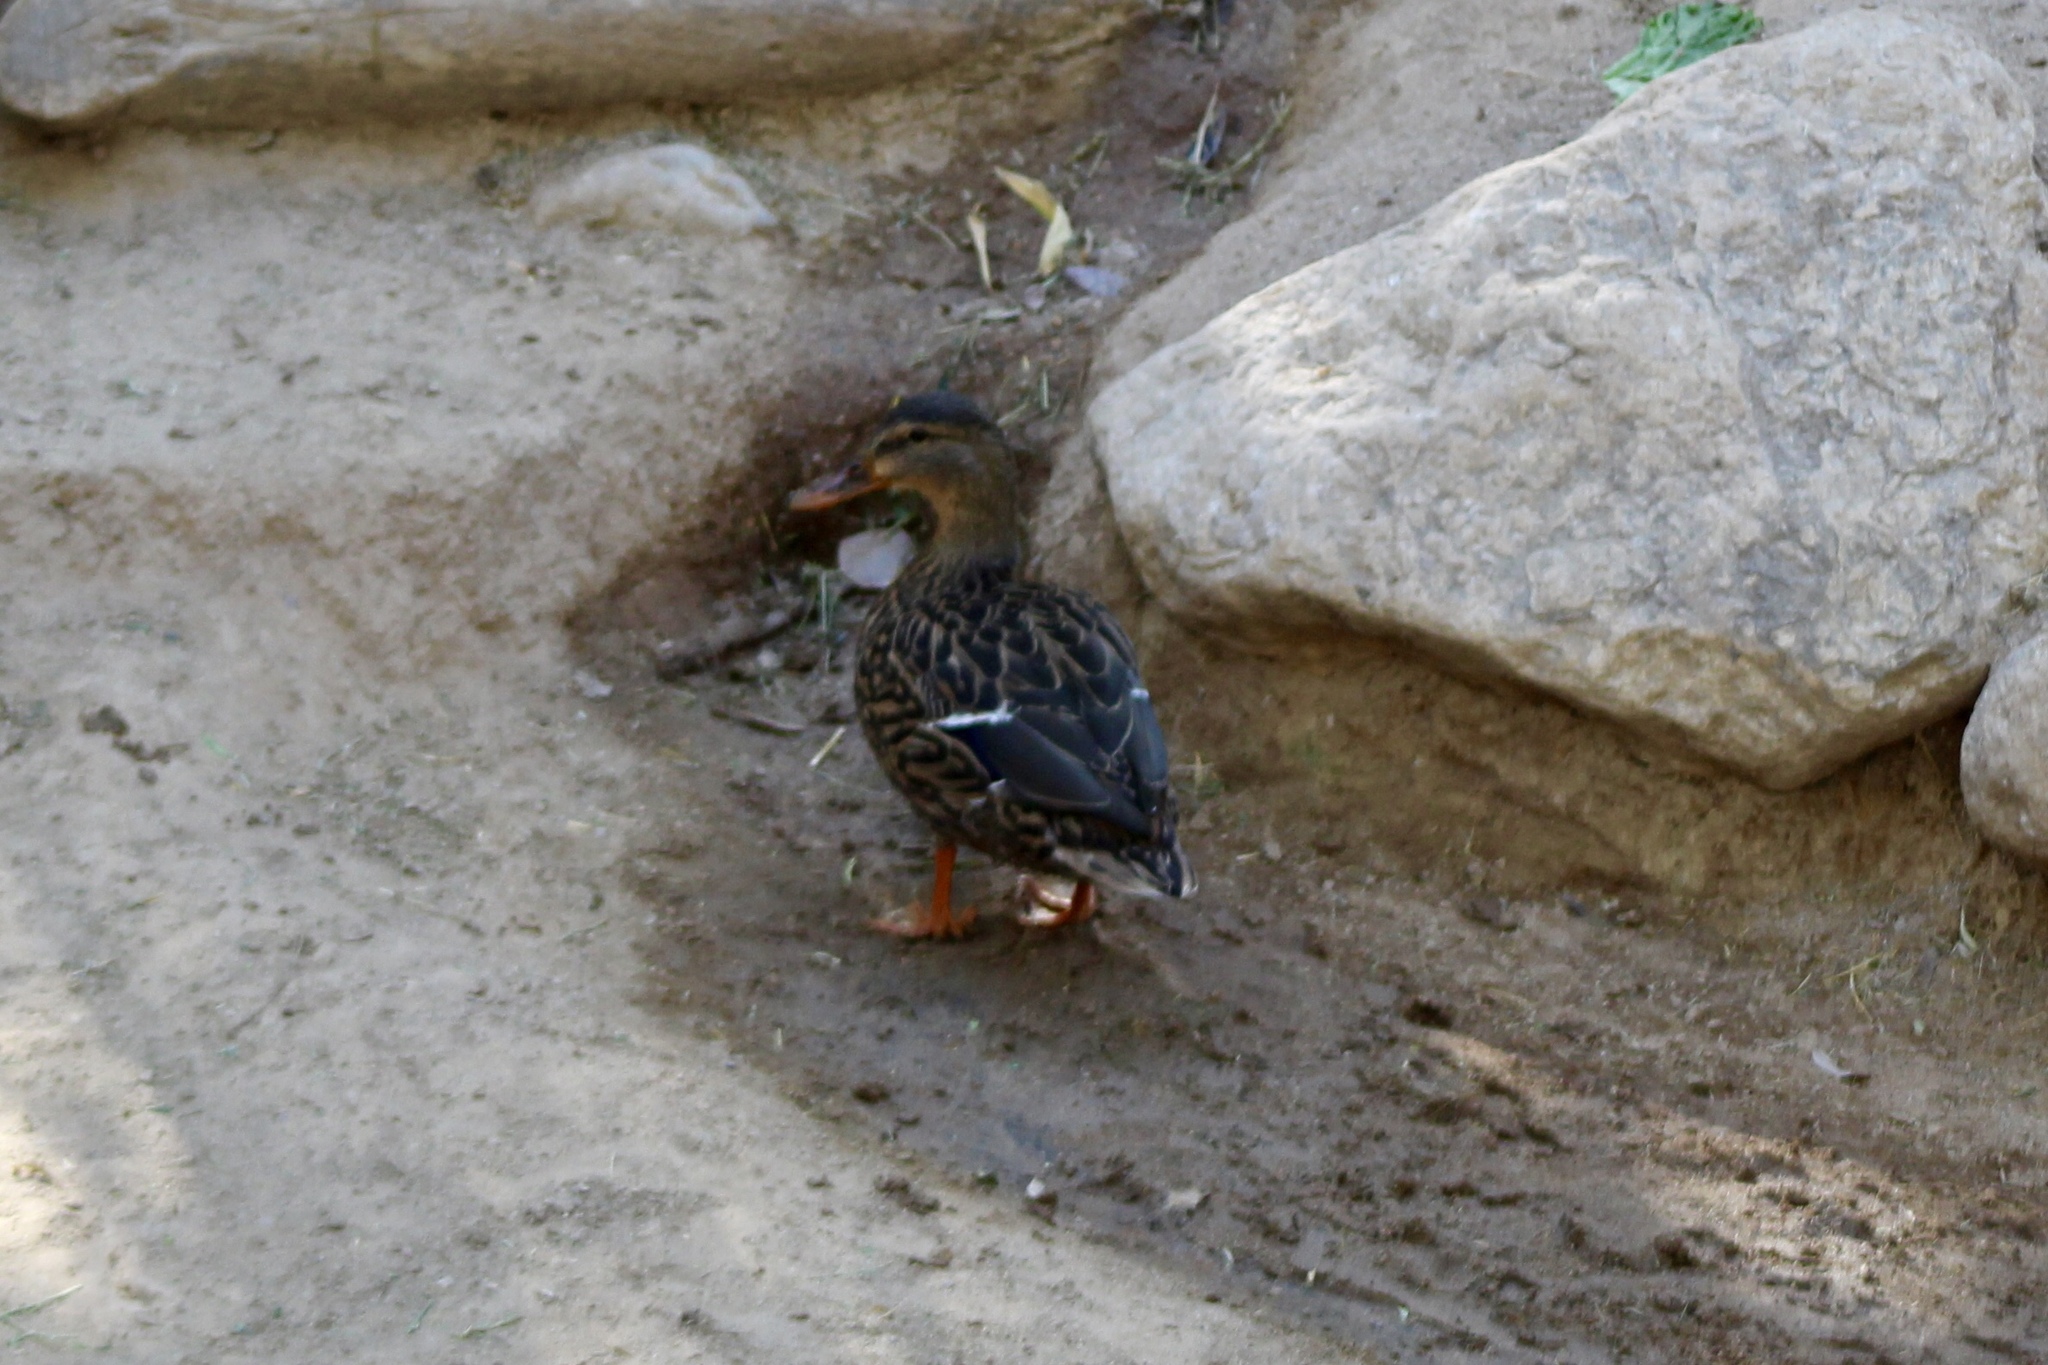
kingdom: Animalia
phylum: Chordata
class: Aves
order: Anseriformes
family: Anatidae
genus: Anas
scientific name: Anas platyrhynchos
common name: Mallard
